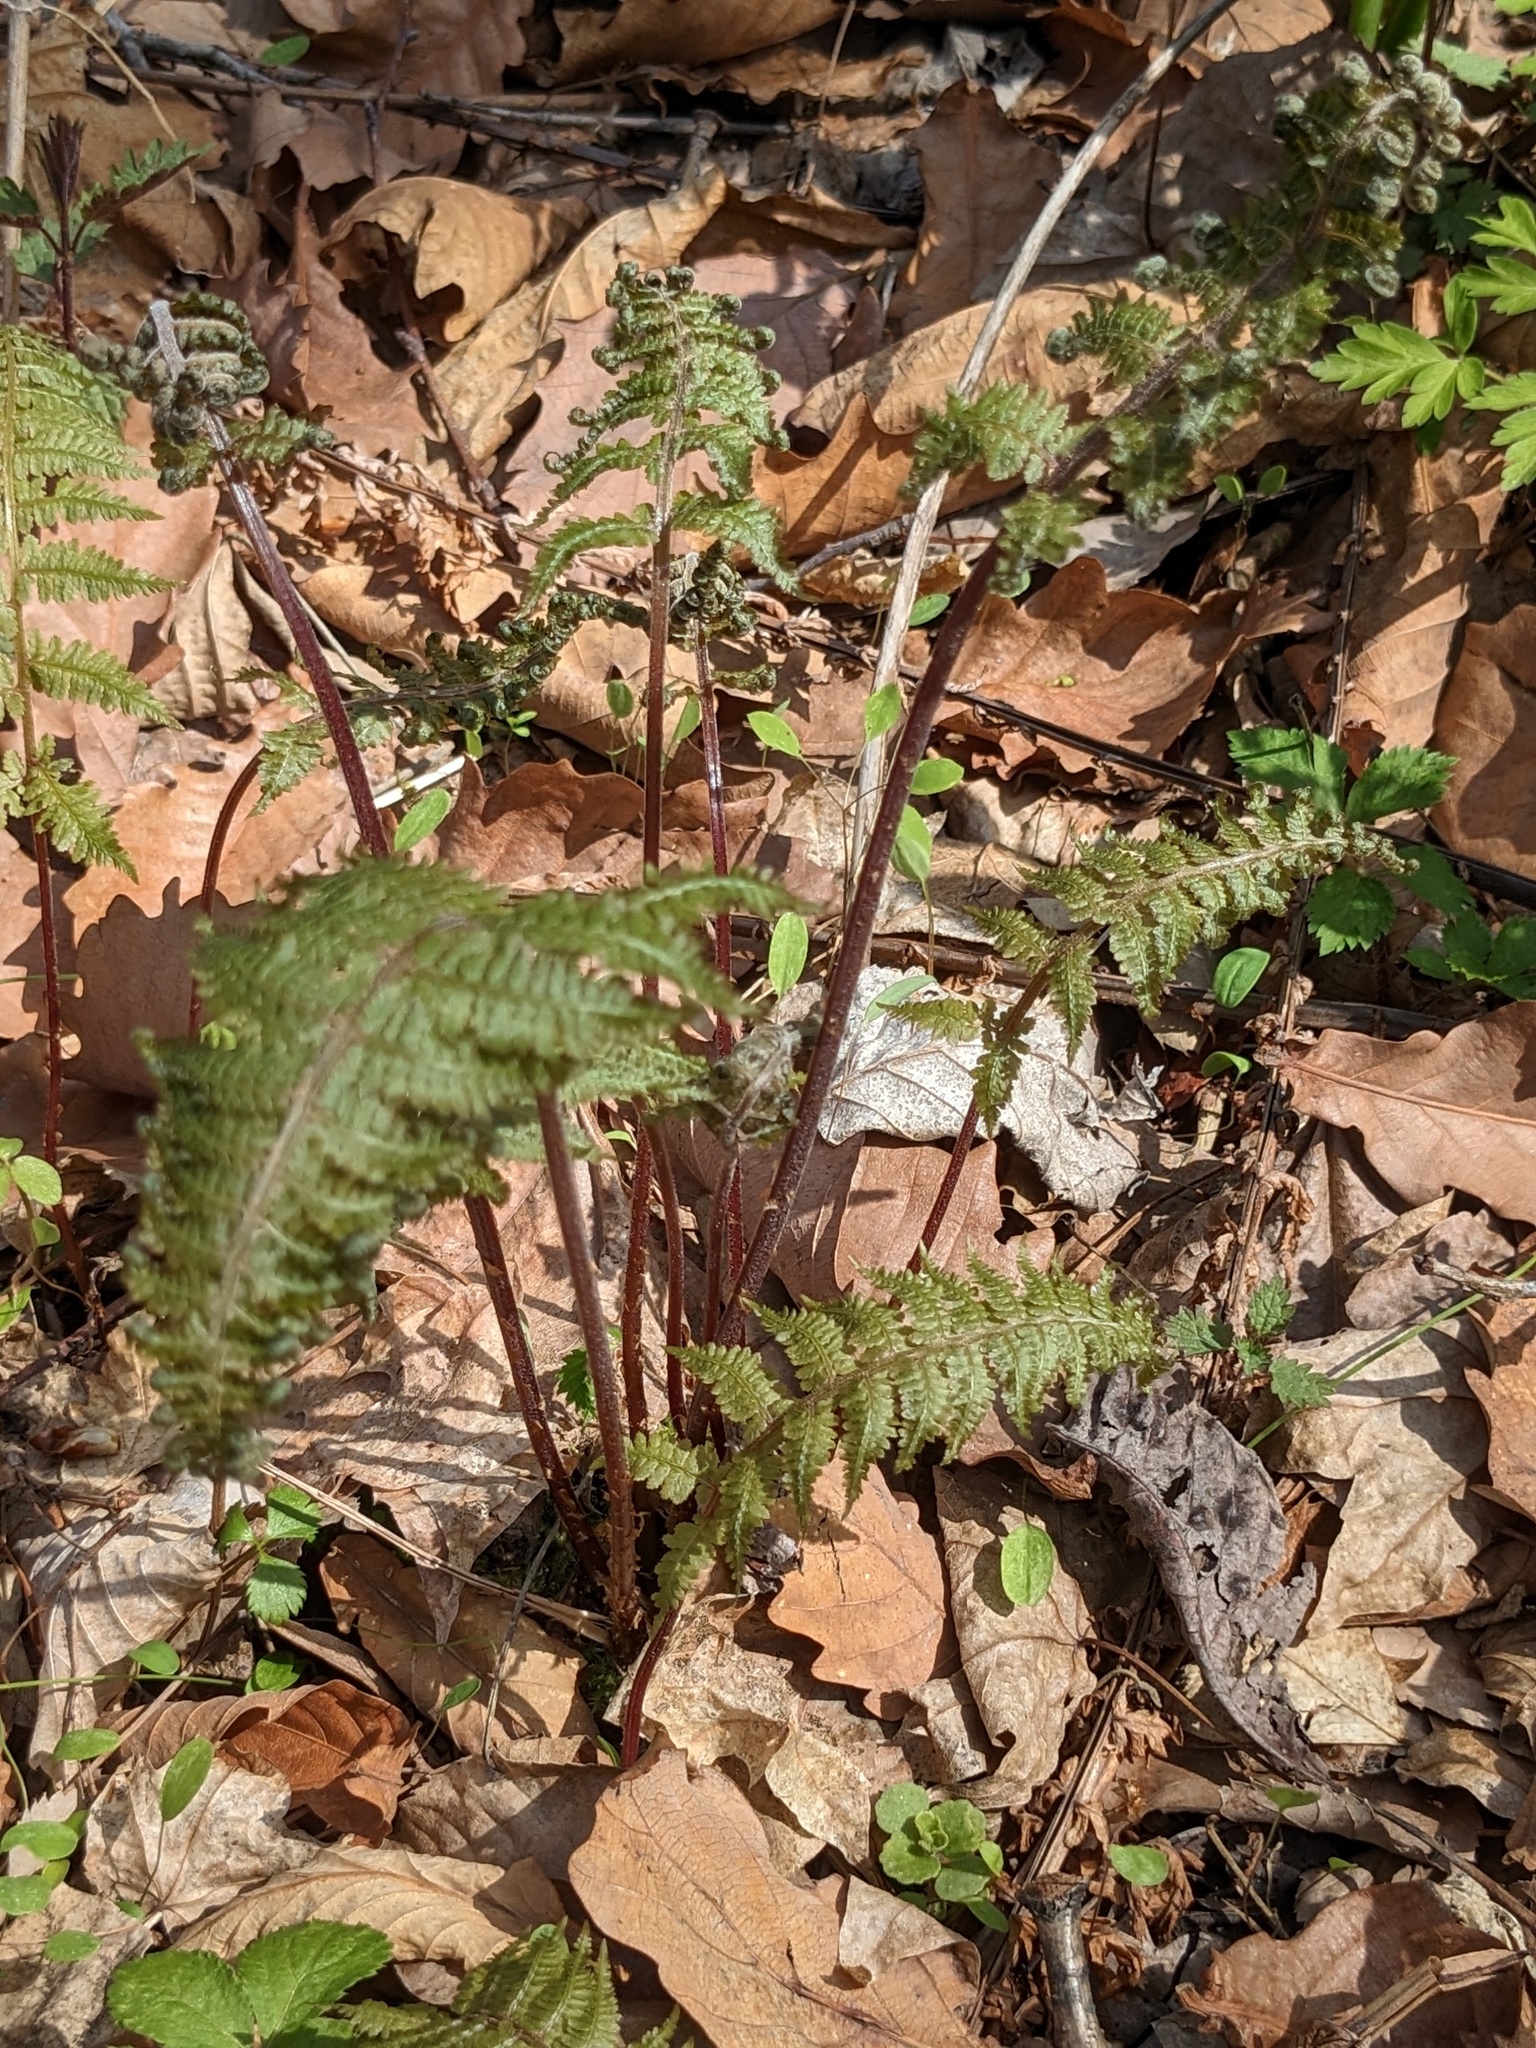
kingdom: Plantae
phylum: Tracheophyta
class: Polypodiopsida
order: Polypodiales
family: Athyriaceae
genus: Athyrium
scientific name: Athyrium rubripes
